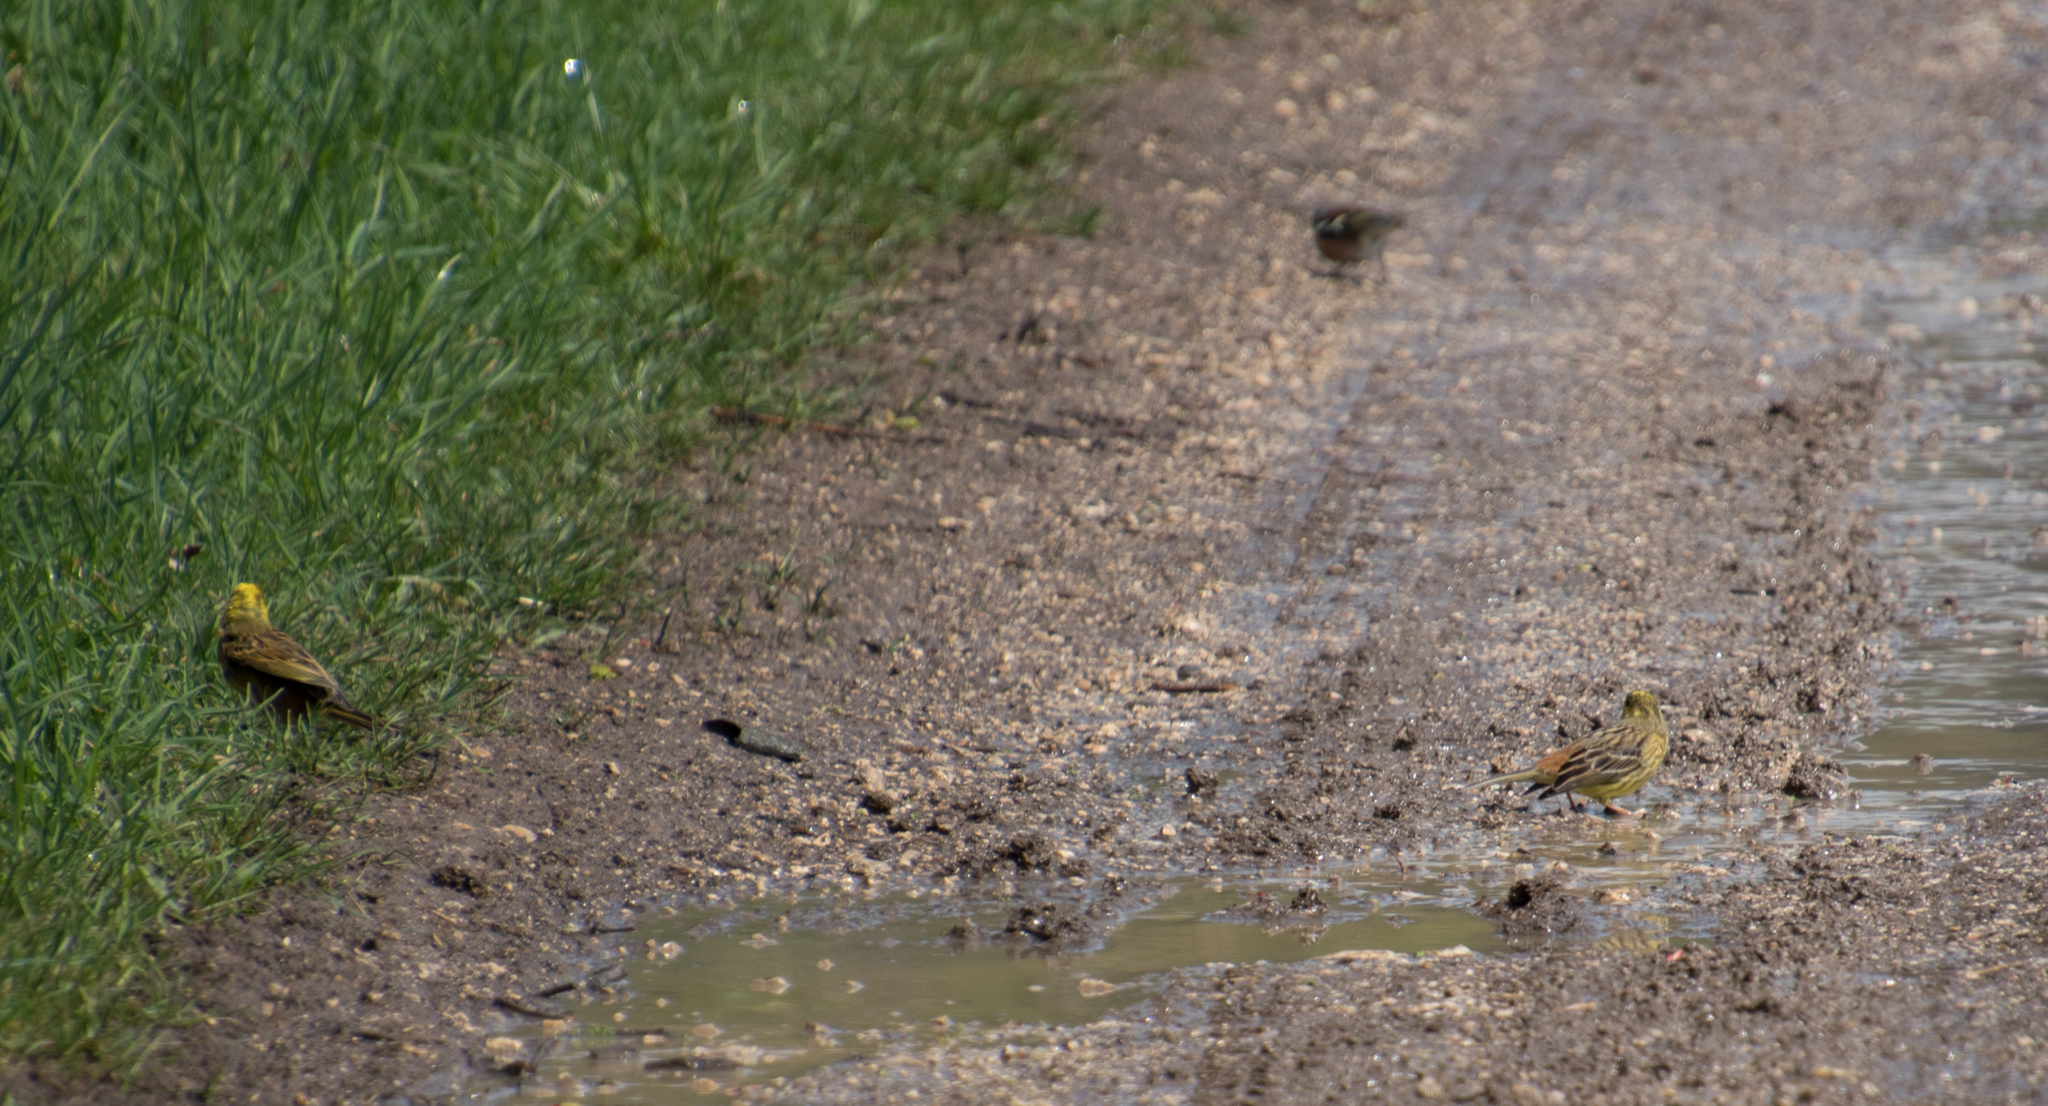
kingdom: Animalia
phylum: Chordata
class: Aves
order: Passeriformes
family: Emberizidae
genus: Emberiza
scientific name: Emberiza citrinella
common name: Yellowhammer
